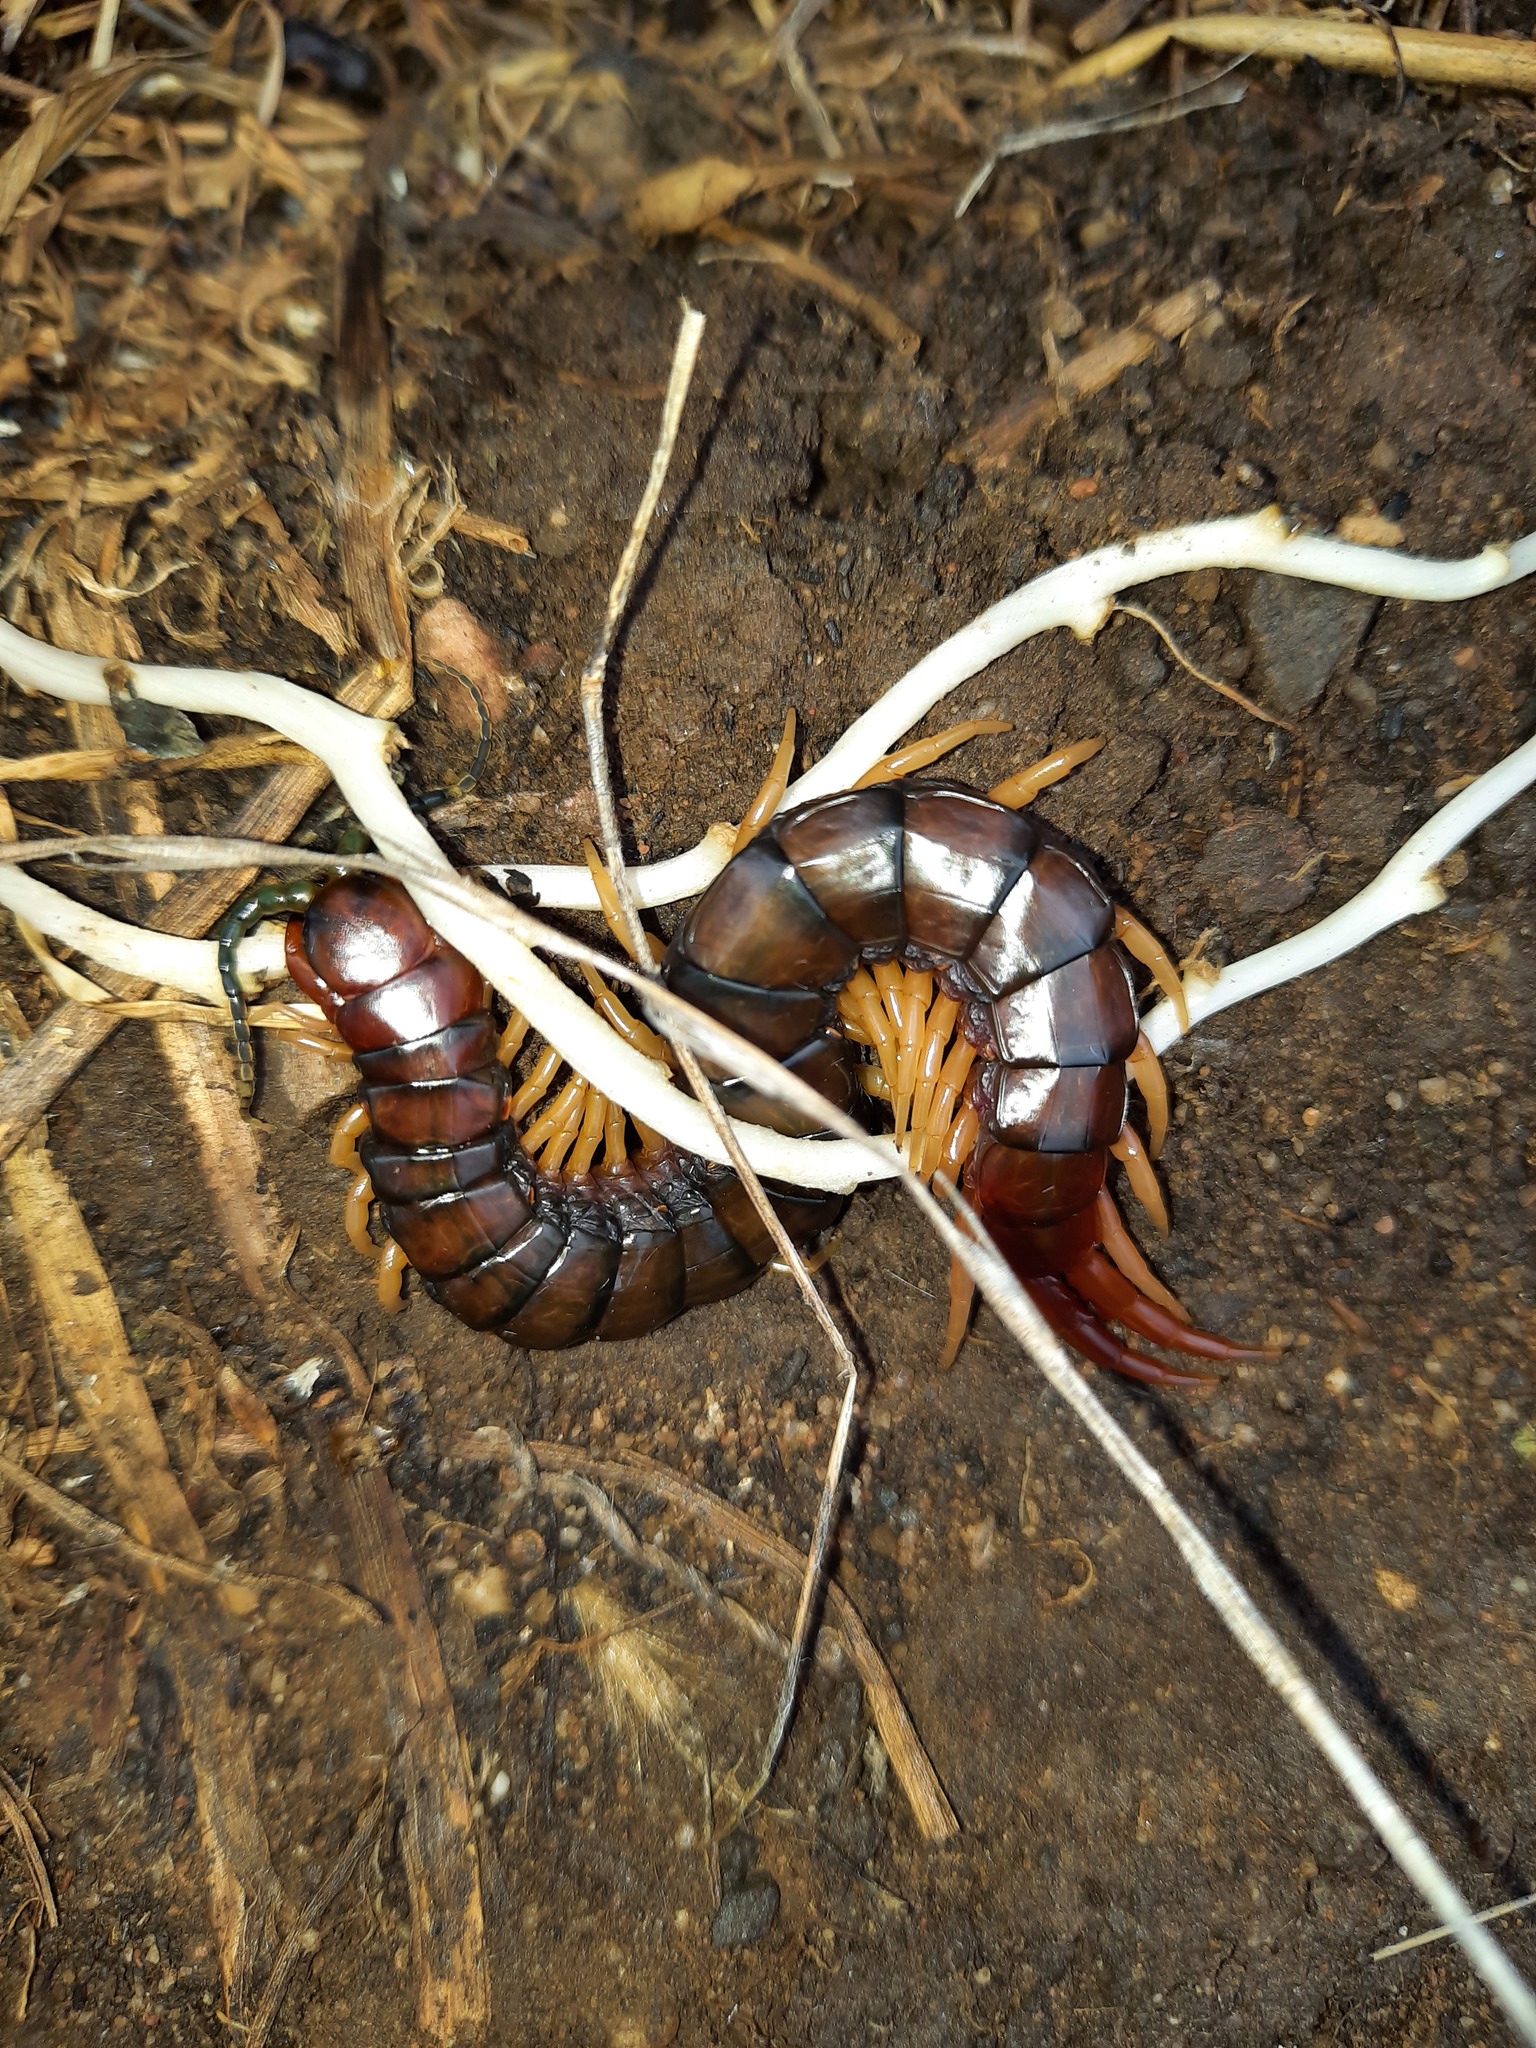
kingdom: Animalia
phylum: Arthropoda
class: Chilopoda
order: Scolopendromorpha
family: Scolopendridae
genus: Cormocephalus
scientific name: Cormocephalus aurantiipes
